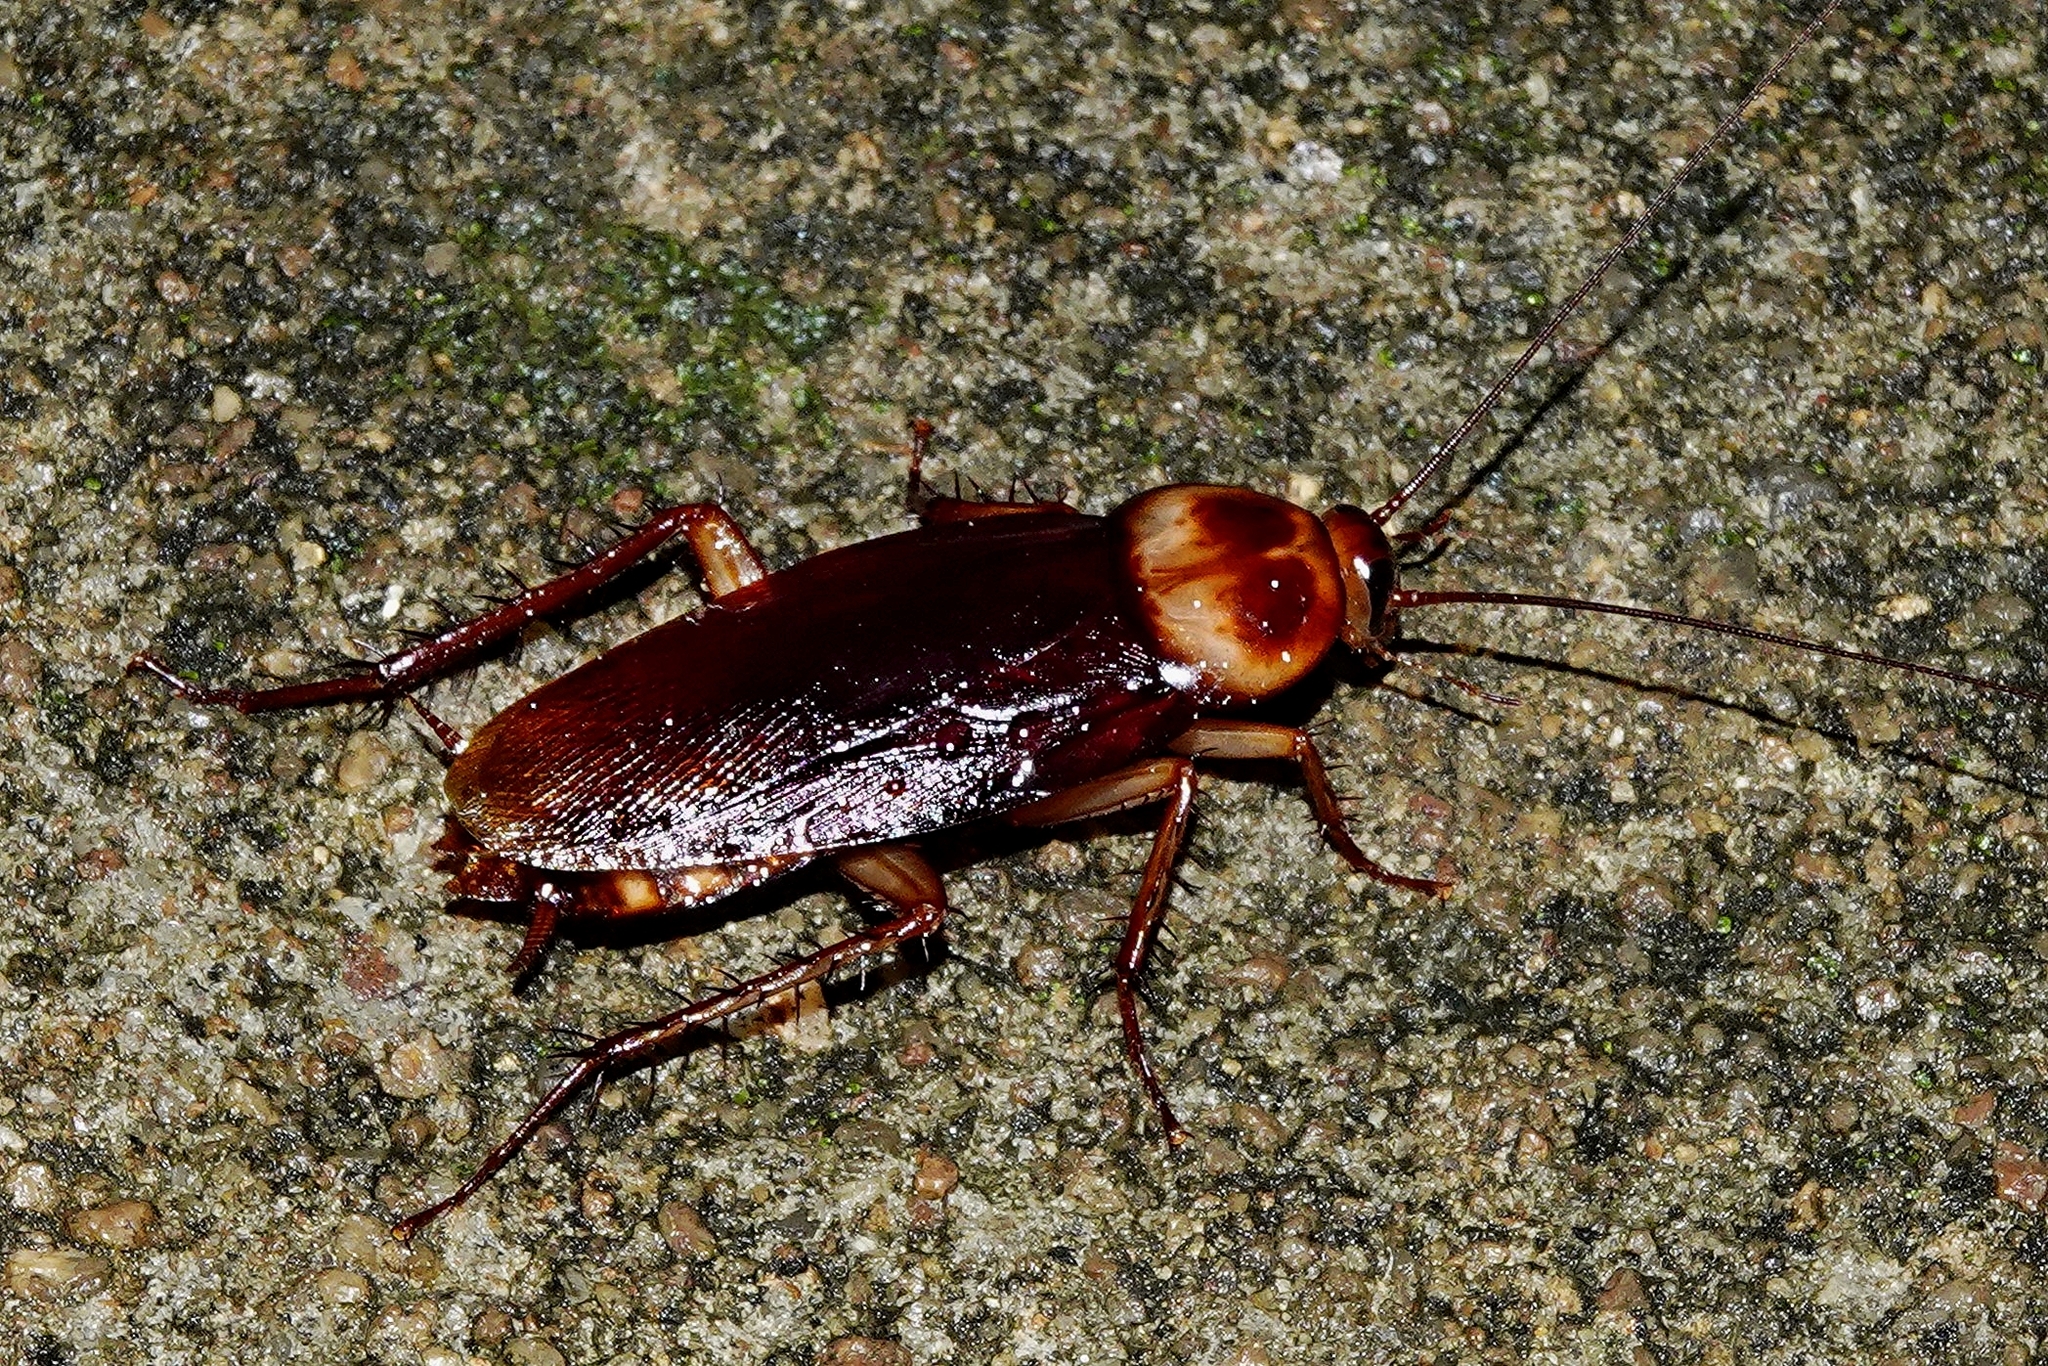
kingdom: Animalia
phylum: Arthropoda
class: Insecta
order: Blattodea
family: Blattidae
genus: Periplaneta
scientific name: Periplaneta americana
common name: American cockroach
